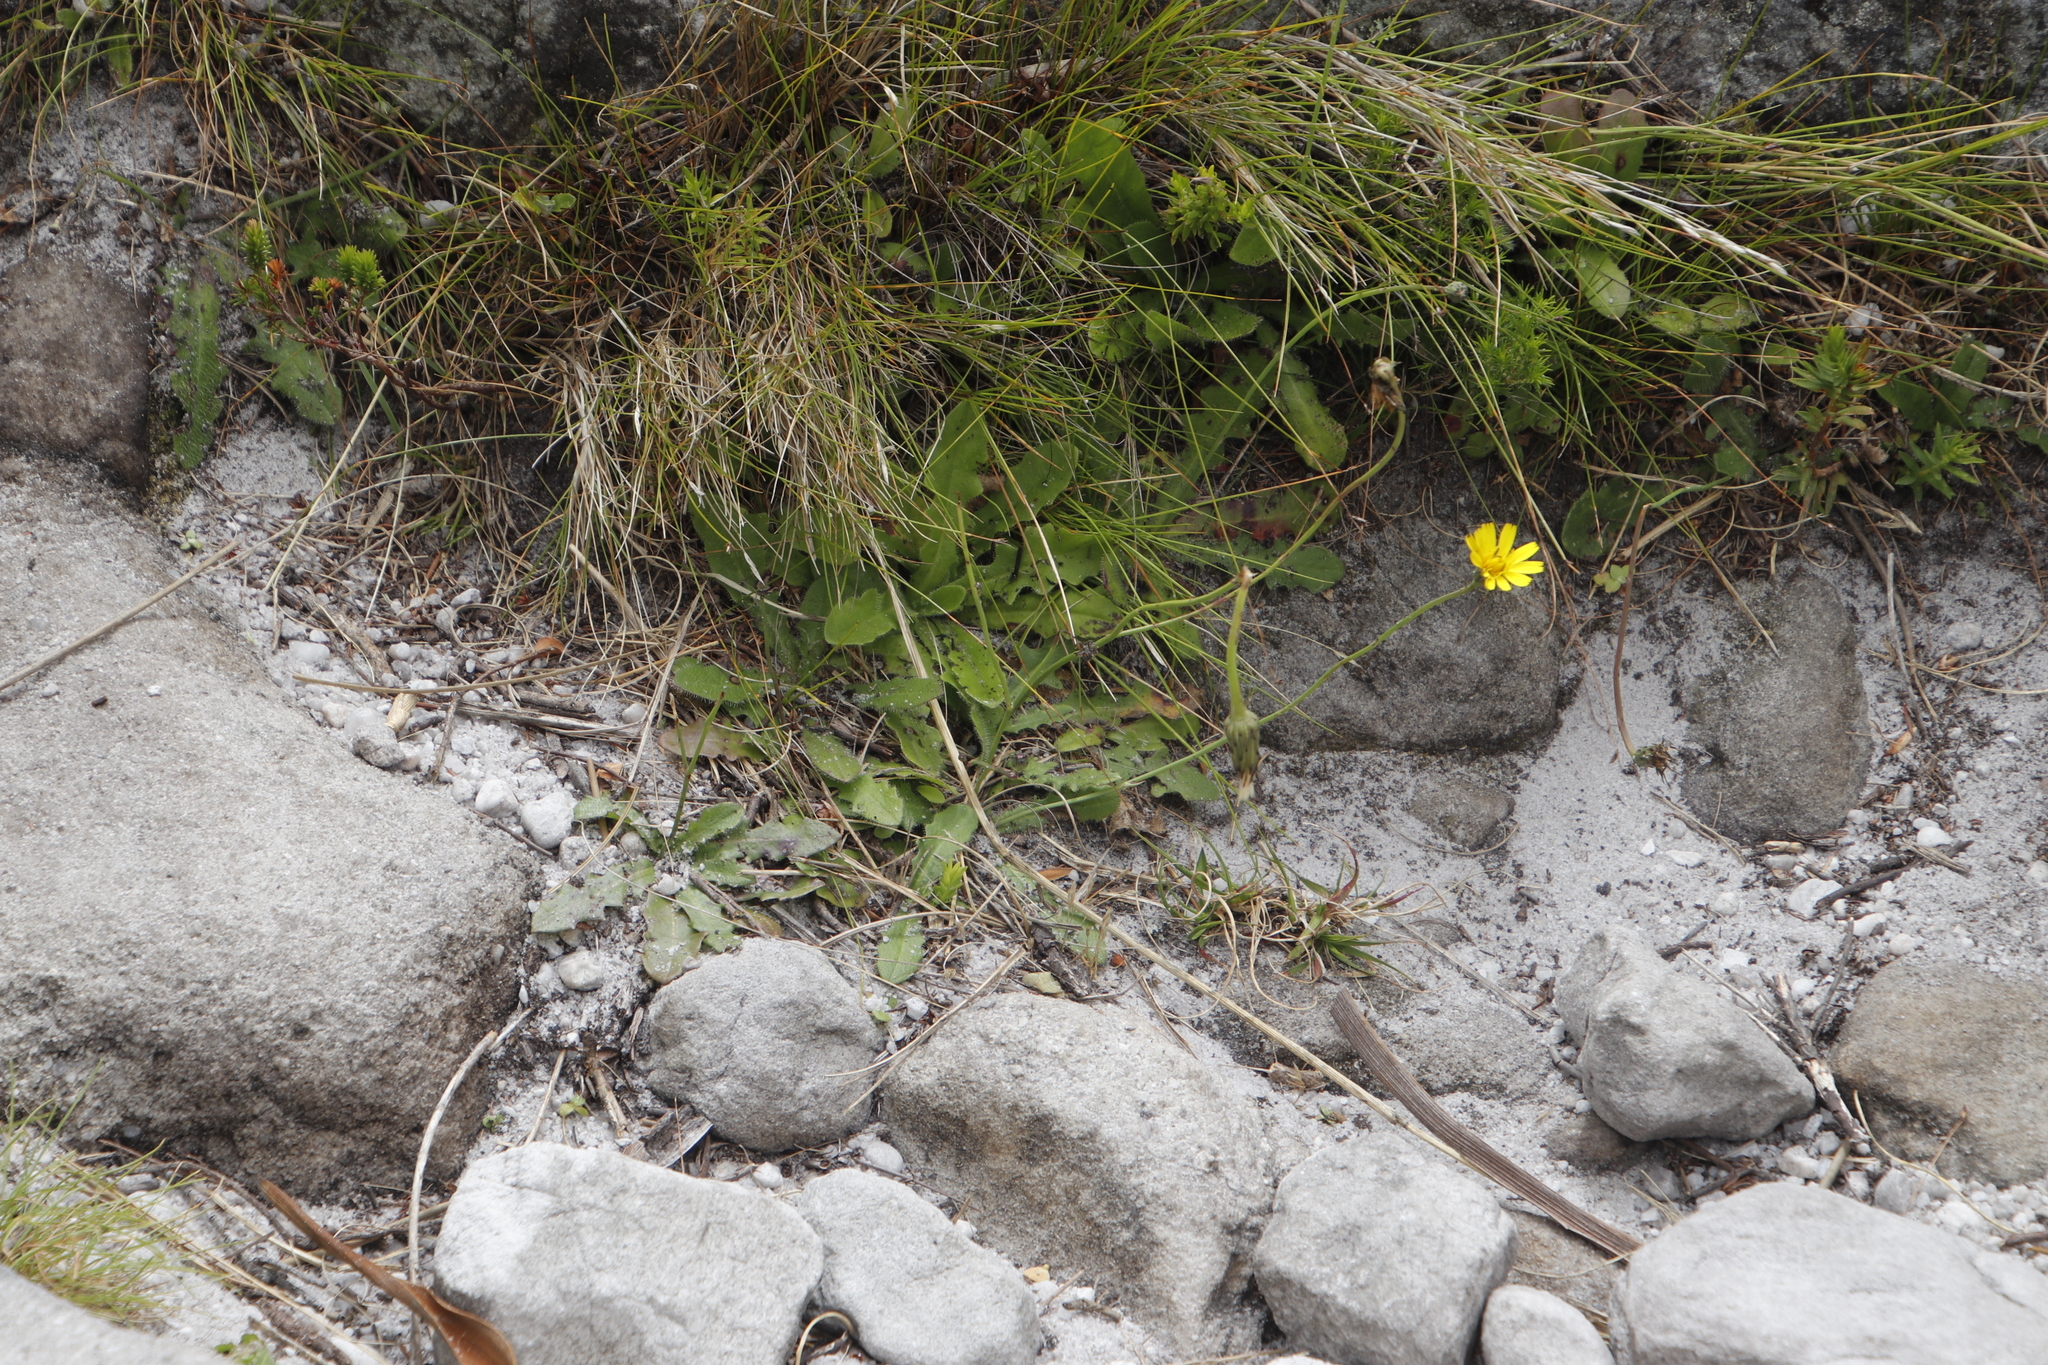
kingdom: Plantae
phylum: Tracheophyta
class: Magnoliopsida
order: Asterales
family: Asteraceae
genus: Hypochaeris
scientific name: Hypochaeris radicata
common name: Flatweed
